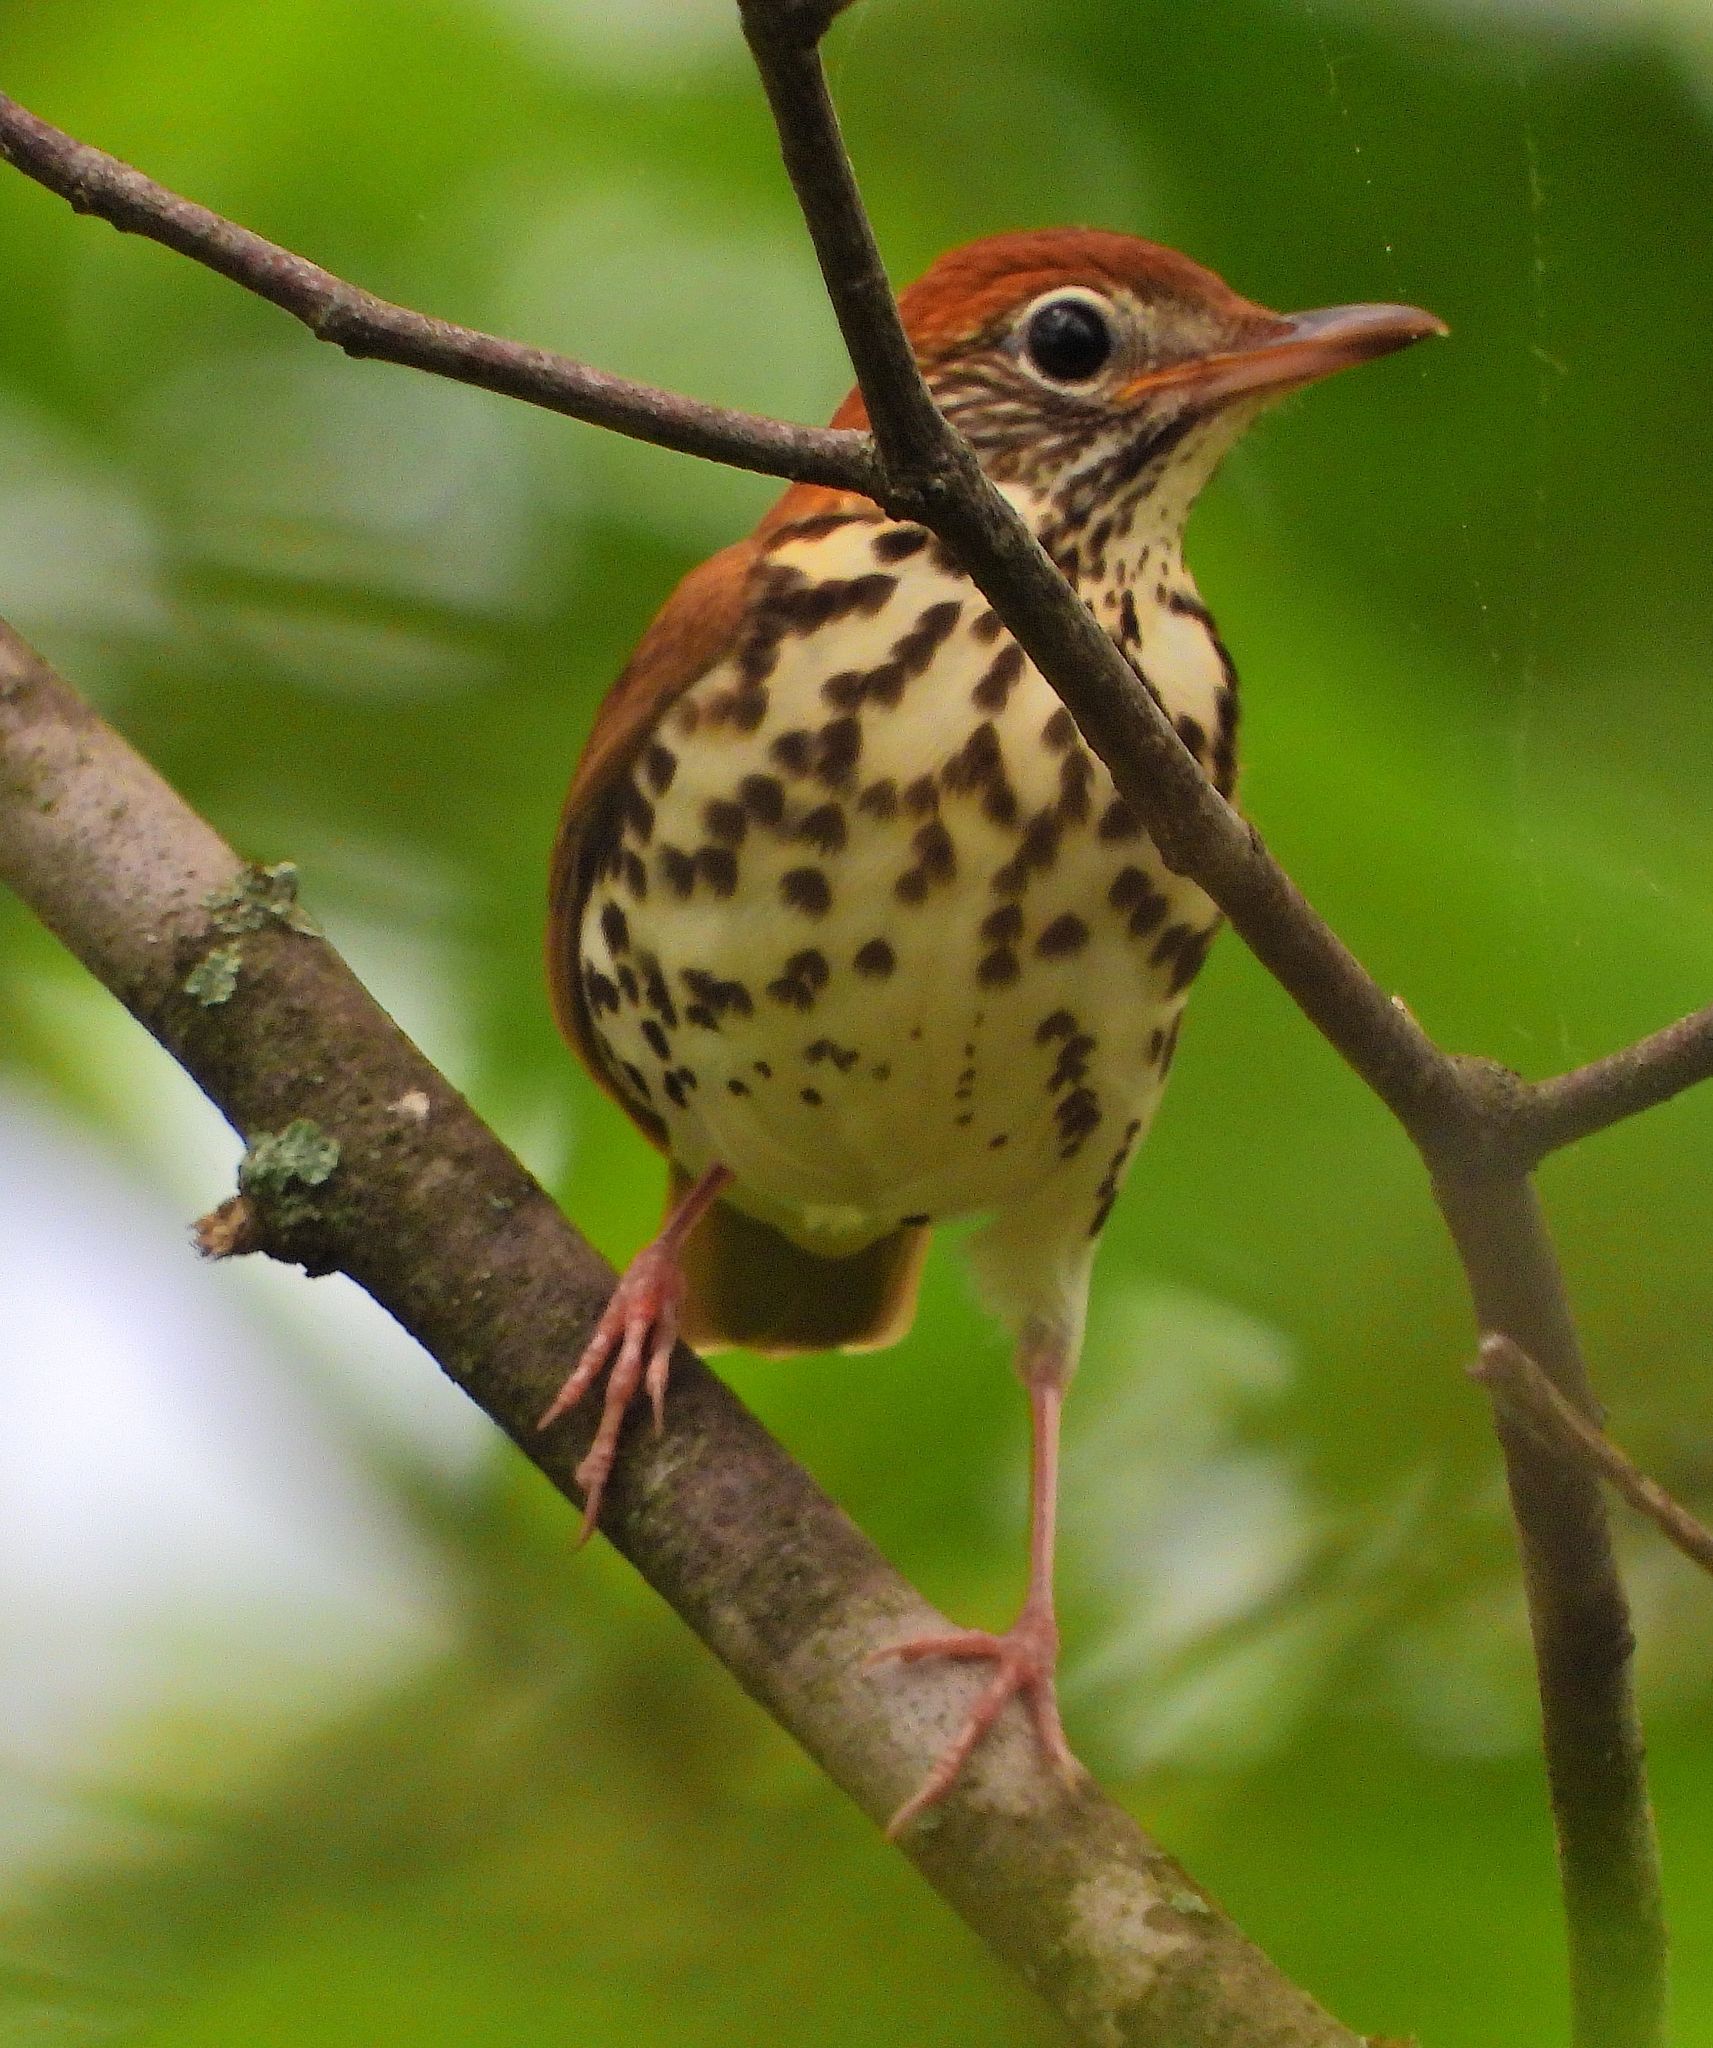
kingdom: Animalia
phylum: Chordata
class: Aves
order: Passeriformes
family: Turdidae
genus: Hylocichla
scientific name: Hylocichla mustelina
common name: Wood thrush
